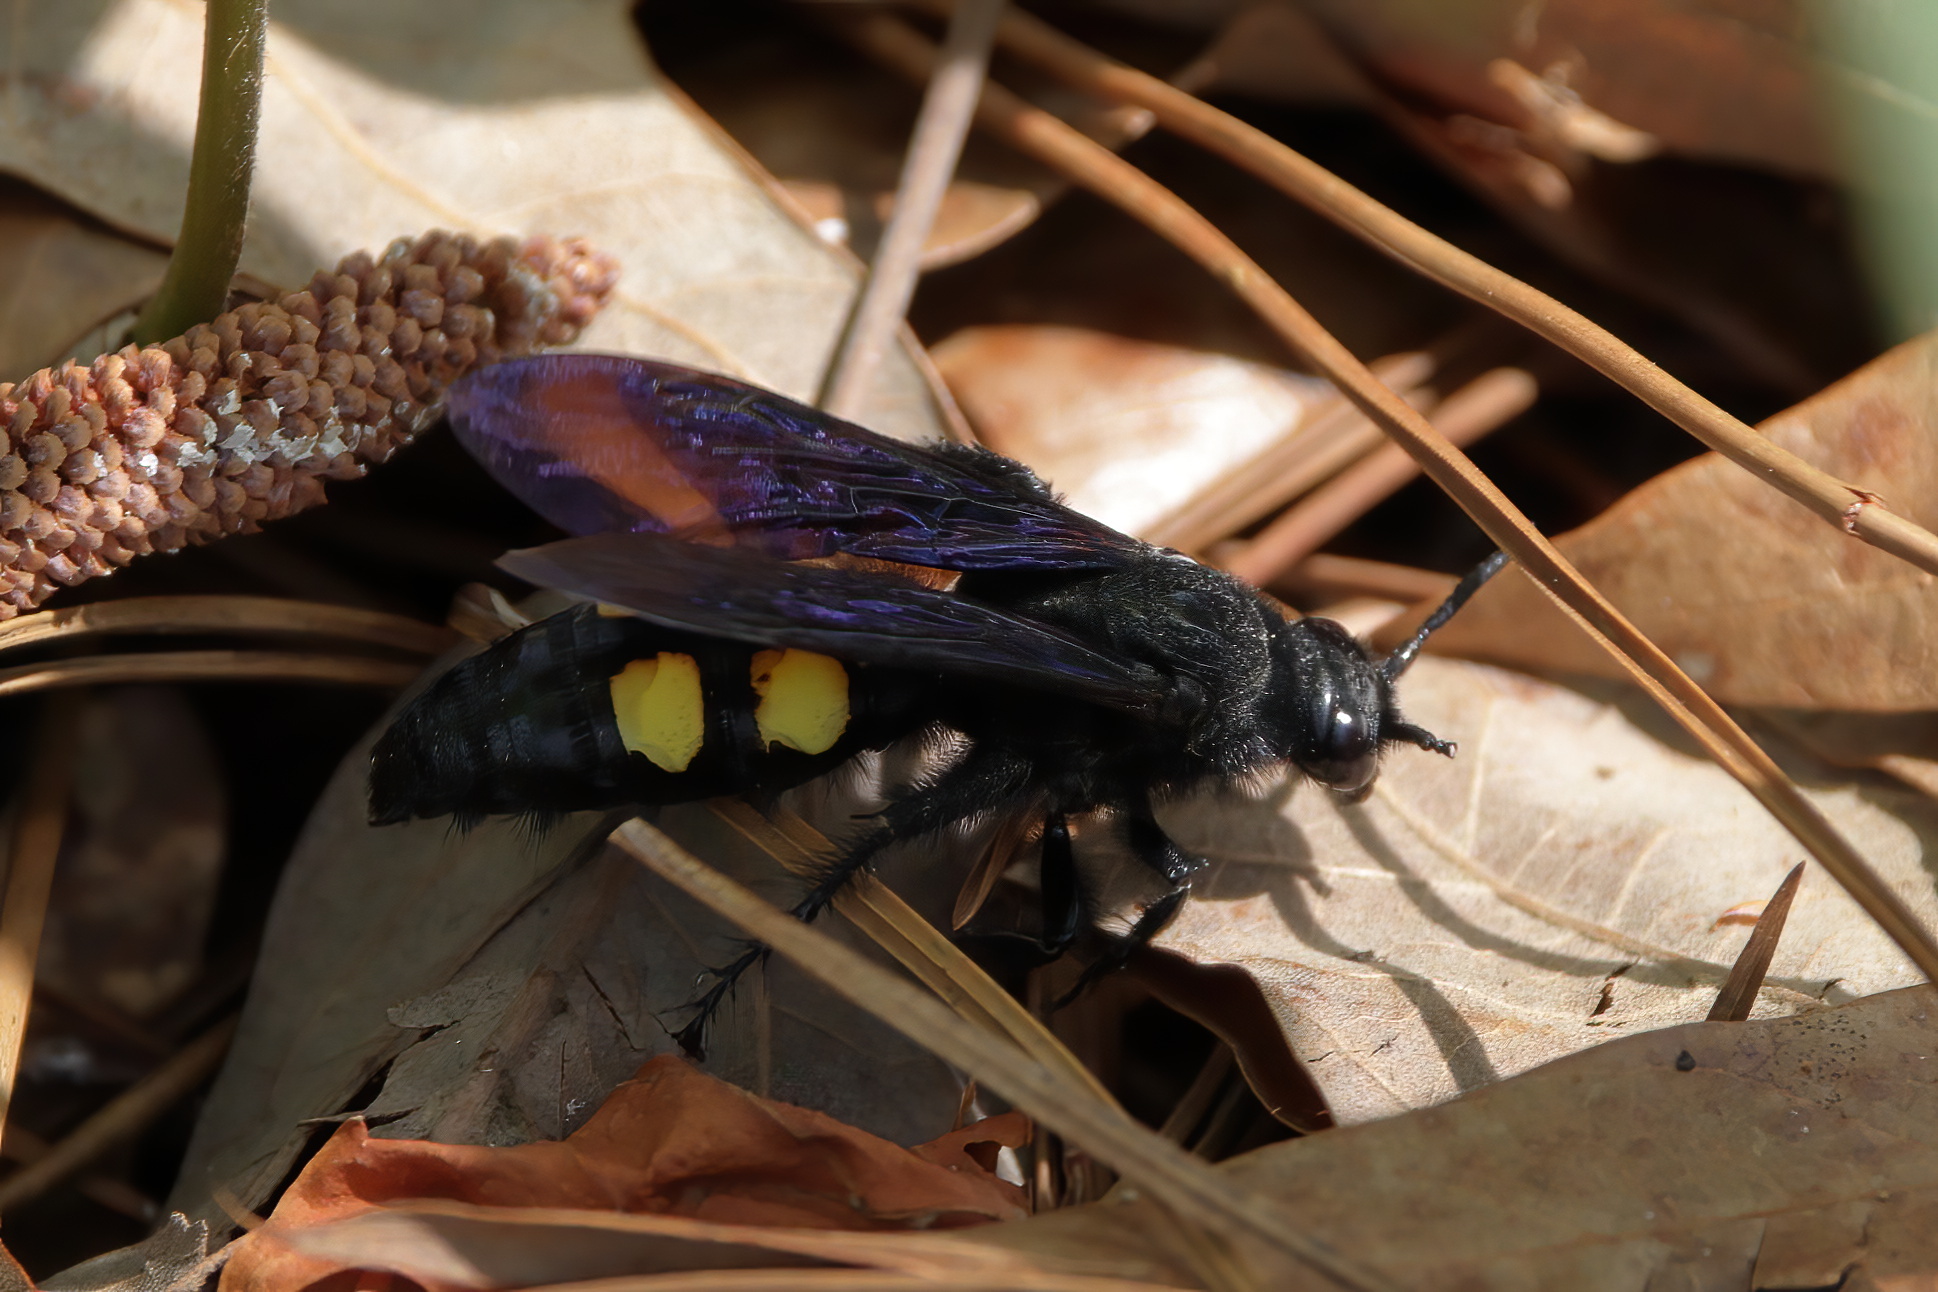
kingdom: Animalia
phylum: Arthropoda
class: Insecta
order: Hymenoptera
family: Scoliidae
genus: Pygodasis
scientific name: Pygodasis
